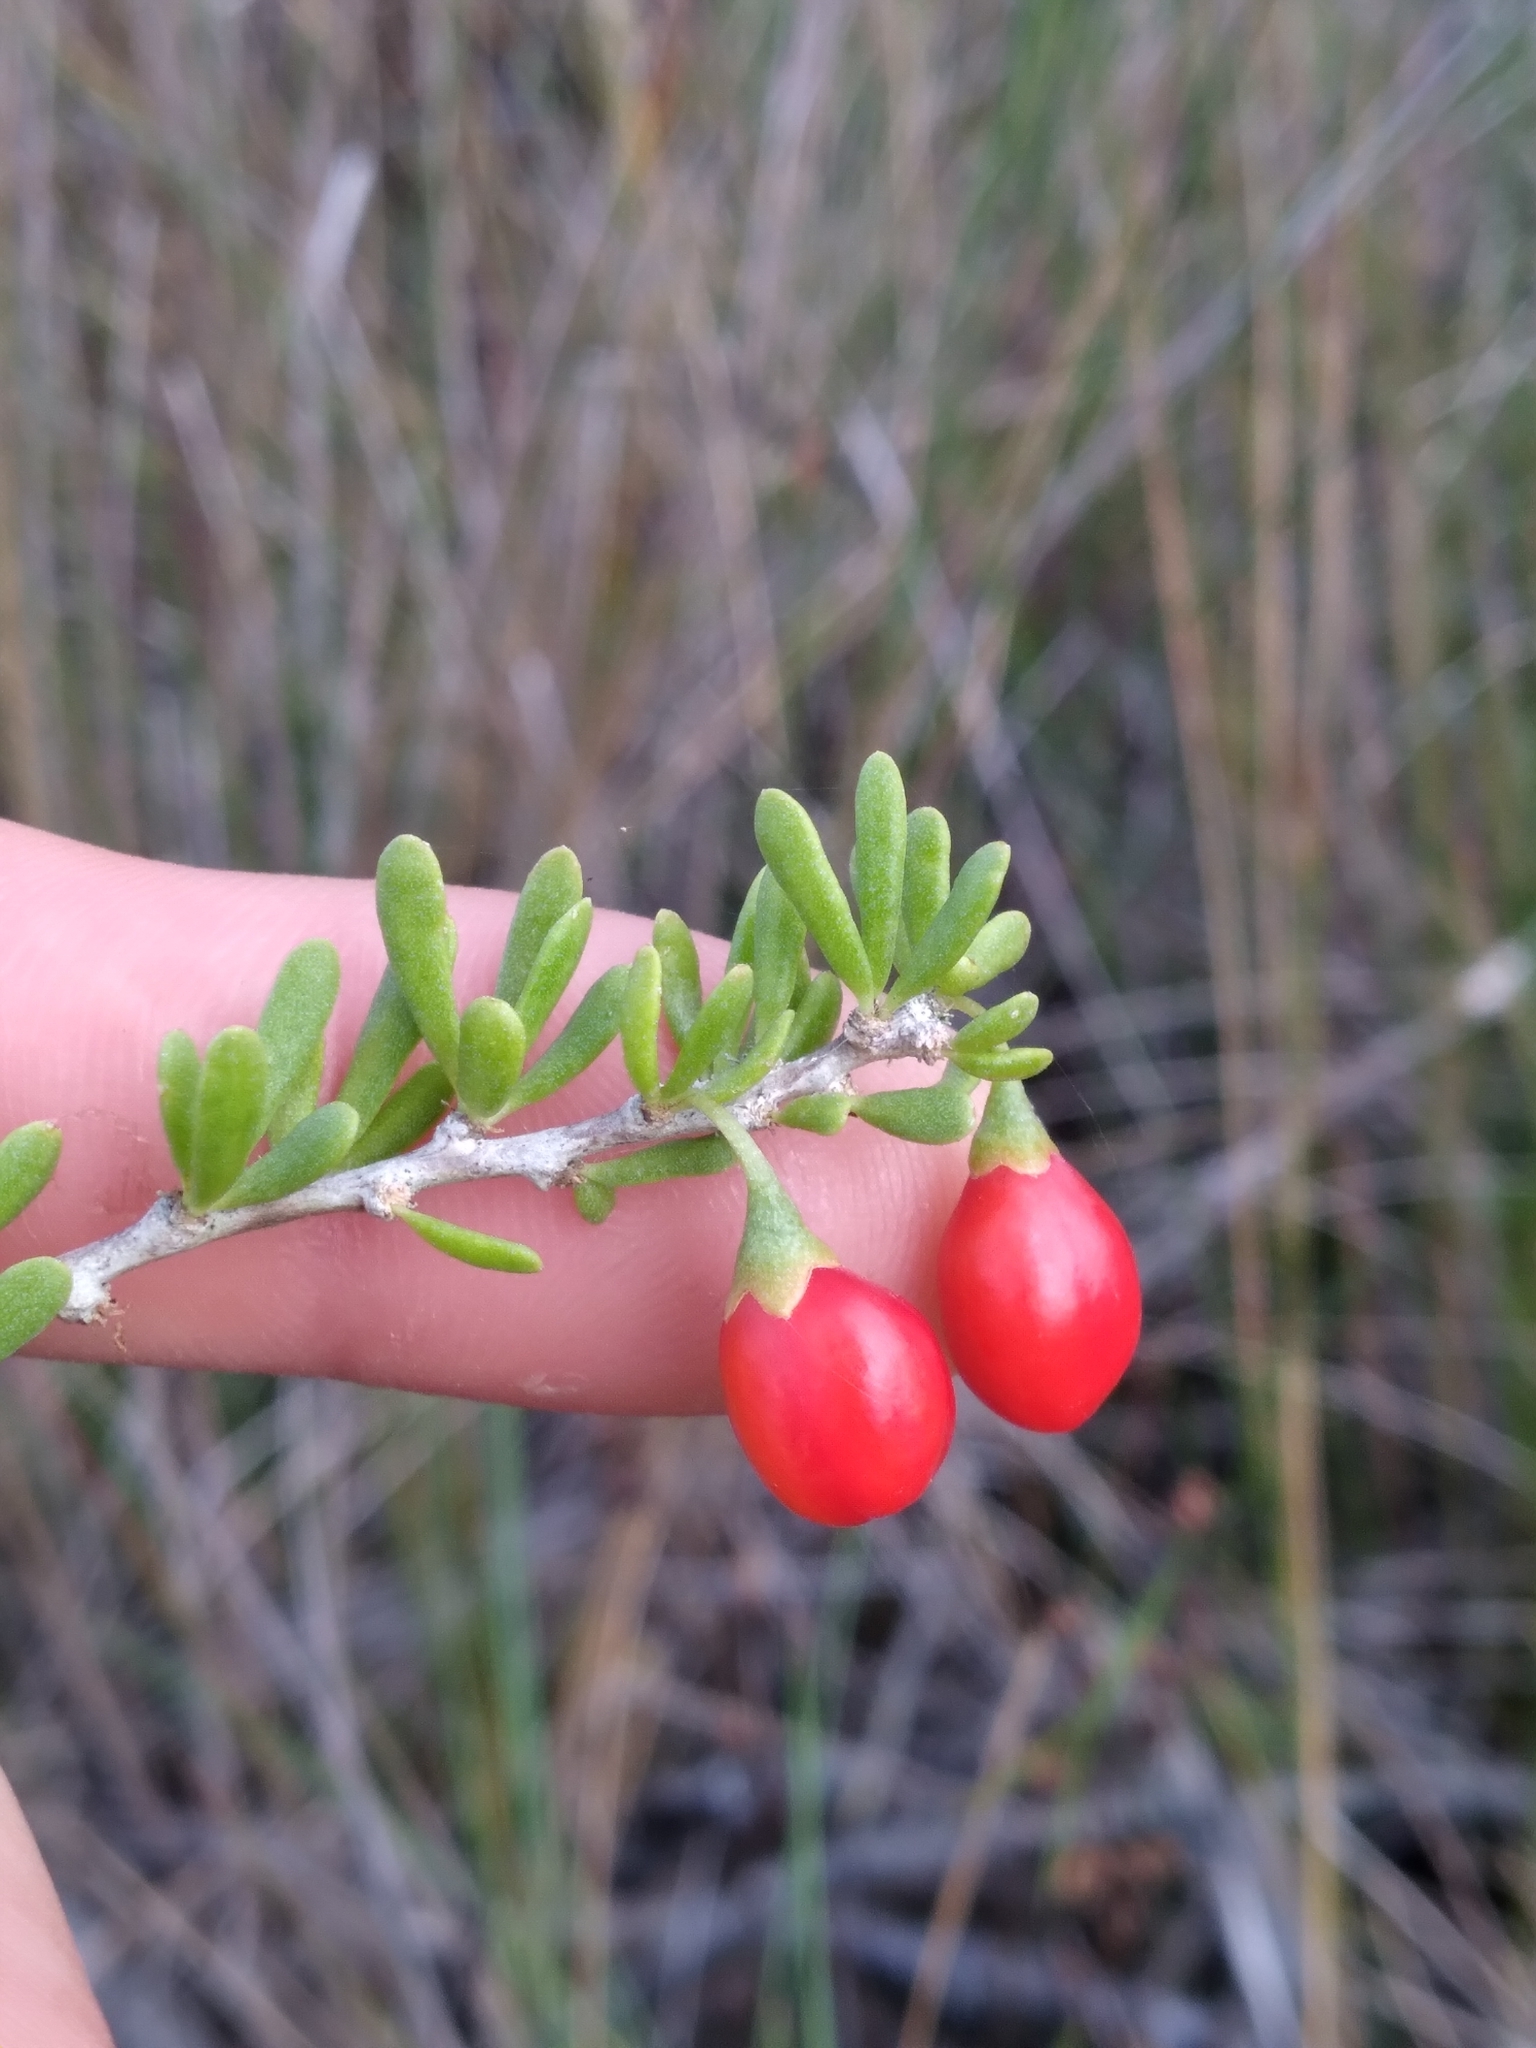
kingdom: Plantae
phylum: Tracheophyta
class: Magnoliopsida
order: Solanales
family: Solanaceae
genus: Lycium
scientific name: Lycium carolinianum
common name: Christmasberry
